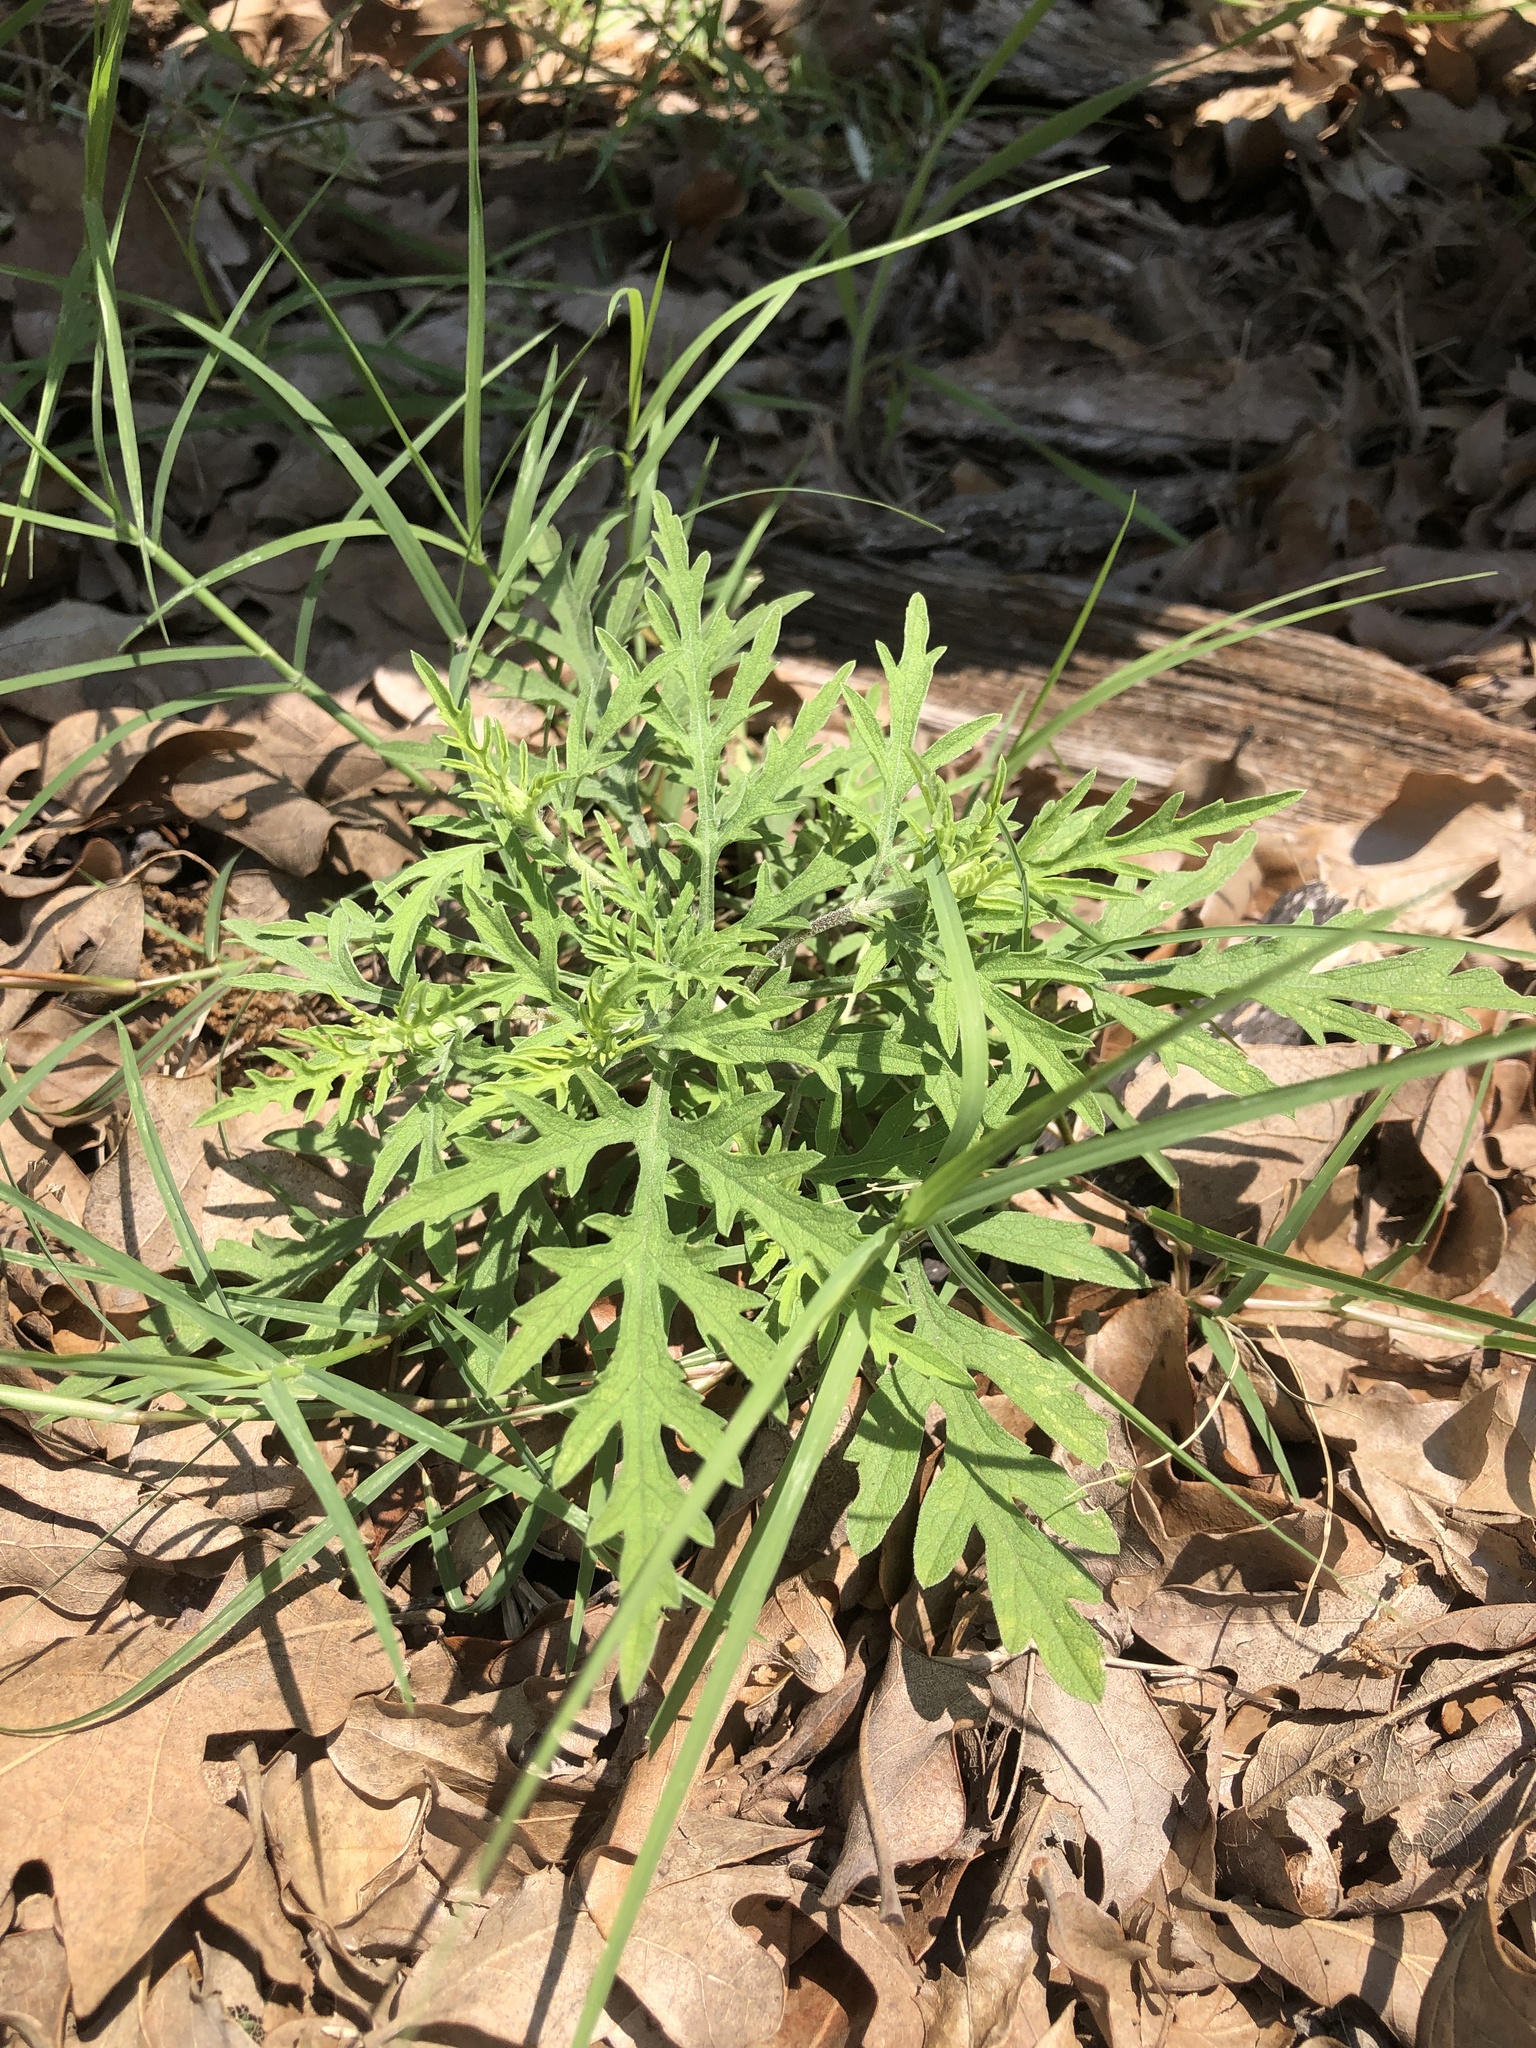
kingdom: Plantae
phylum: Tracheophyta
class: Magnoliopsida
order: Asterales
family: Asteraceae
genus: Ambrosia
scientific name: Ambrosia psilostachya
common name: Perennial ragweed
